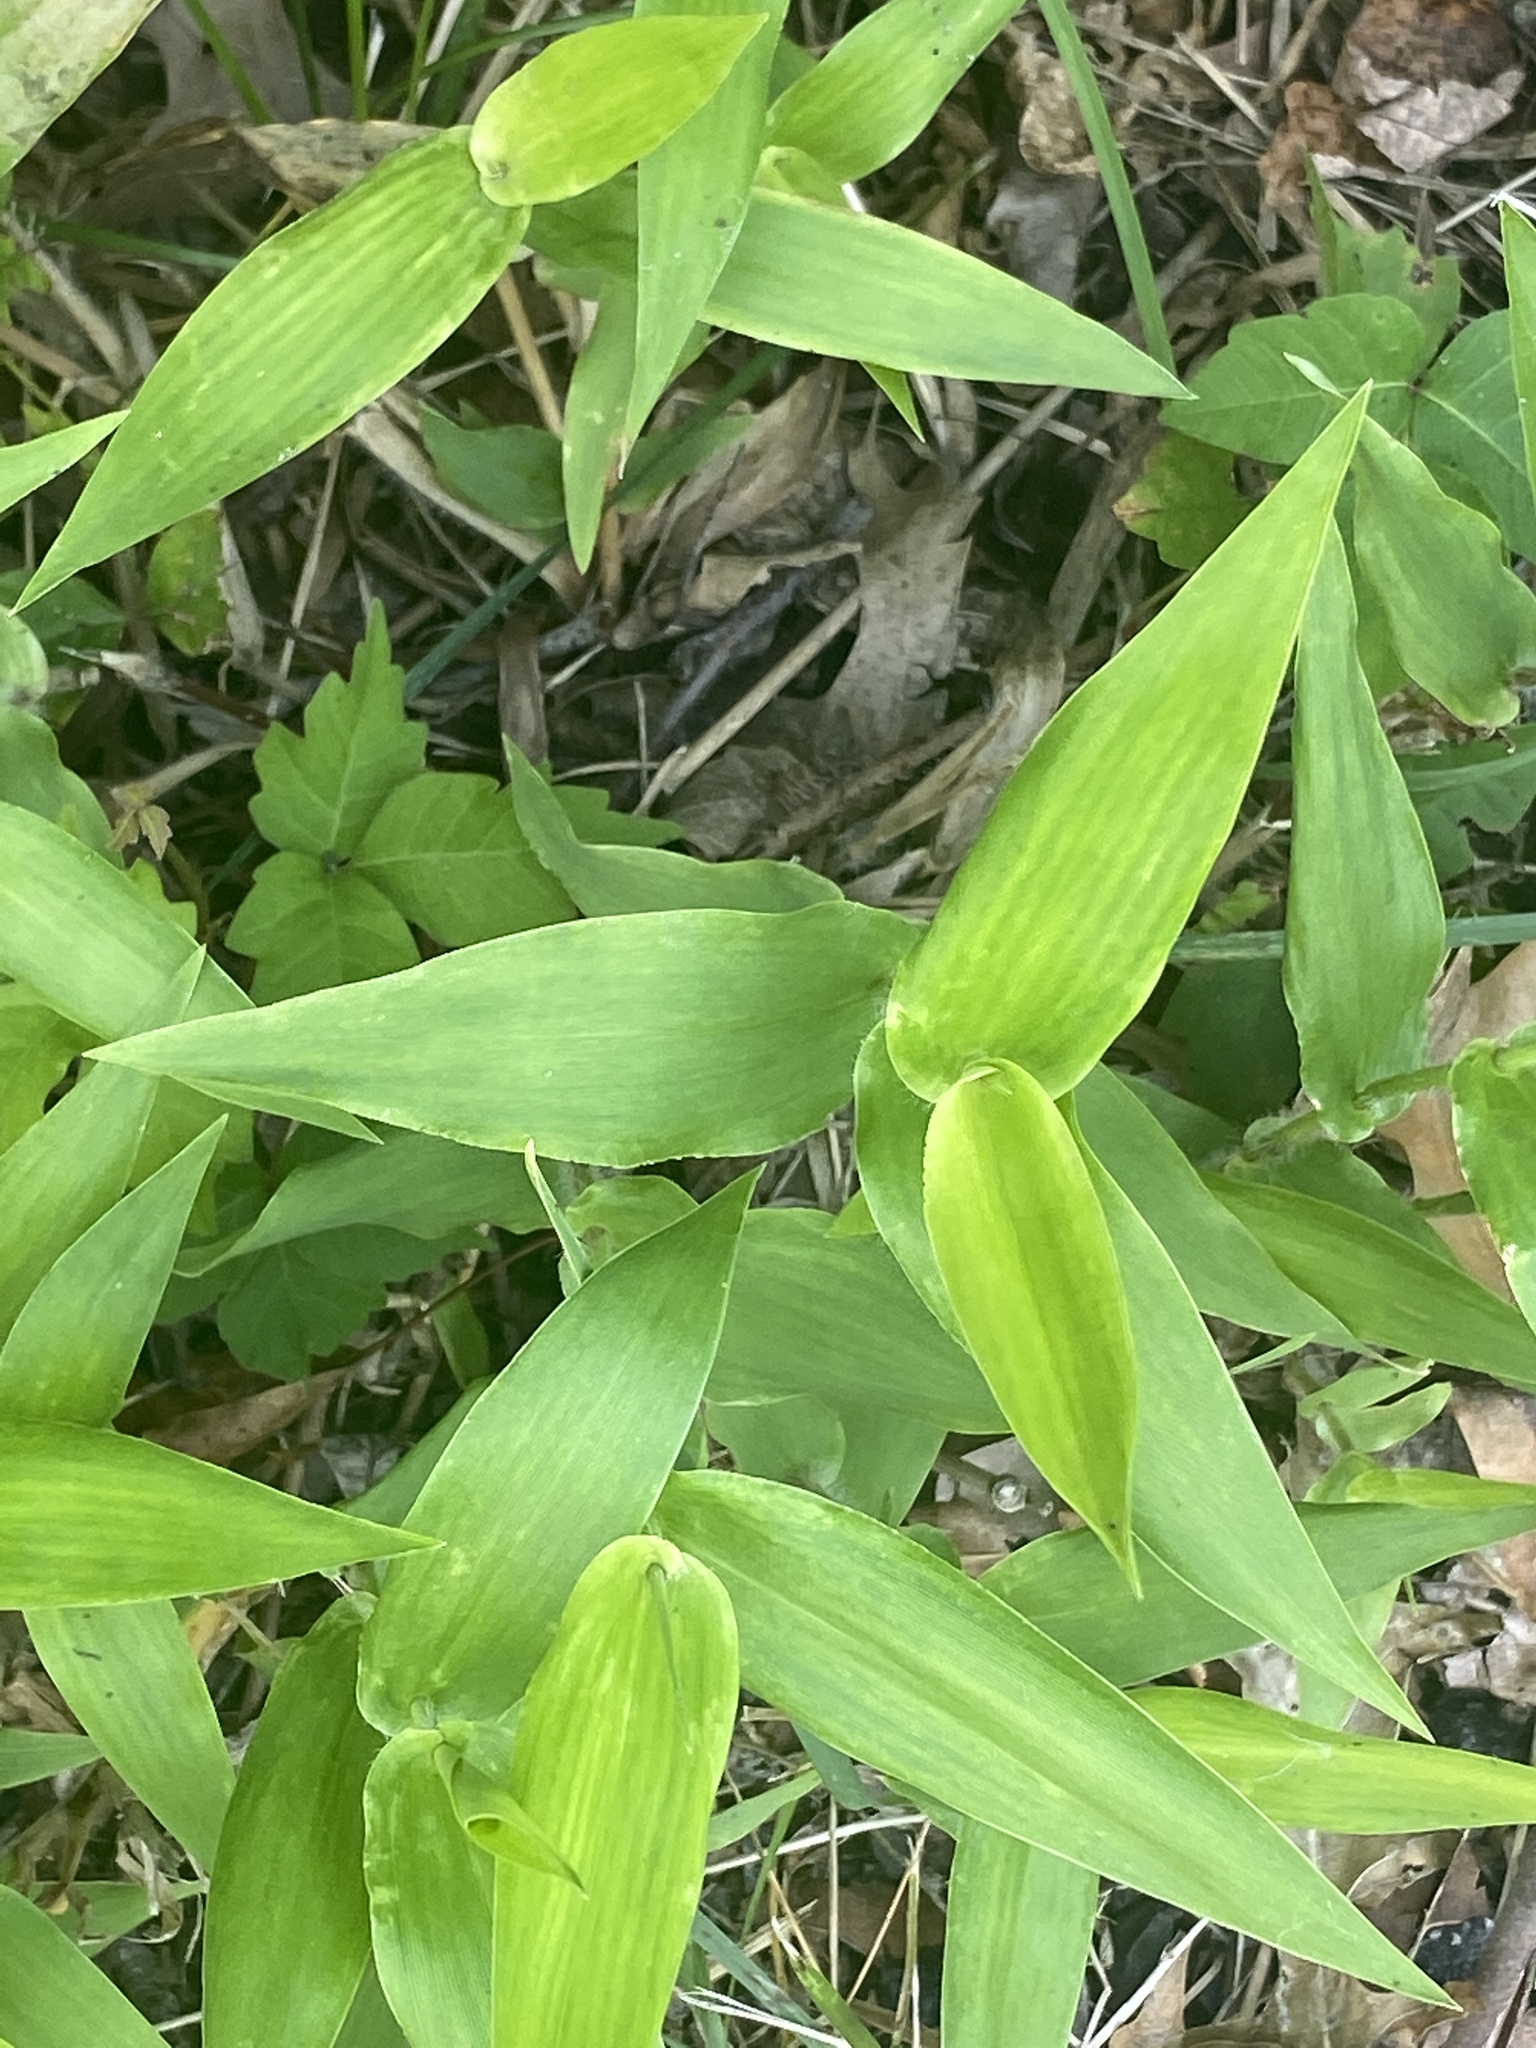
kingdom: Plantae
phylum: Tracheophyta
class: Liliopsida
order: Poales
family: Poaceae
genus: Dichanthelium
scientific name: Dichanthelium clandestinum
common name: Deer-tongue grass
